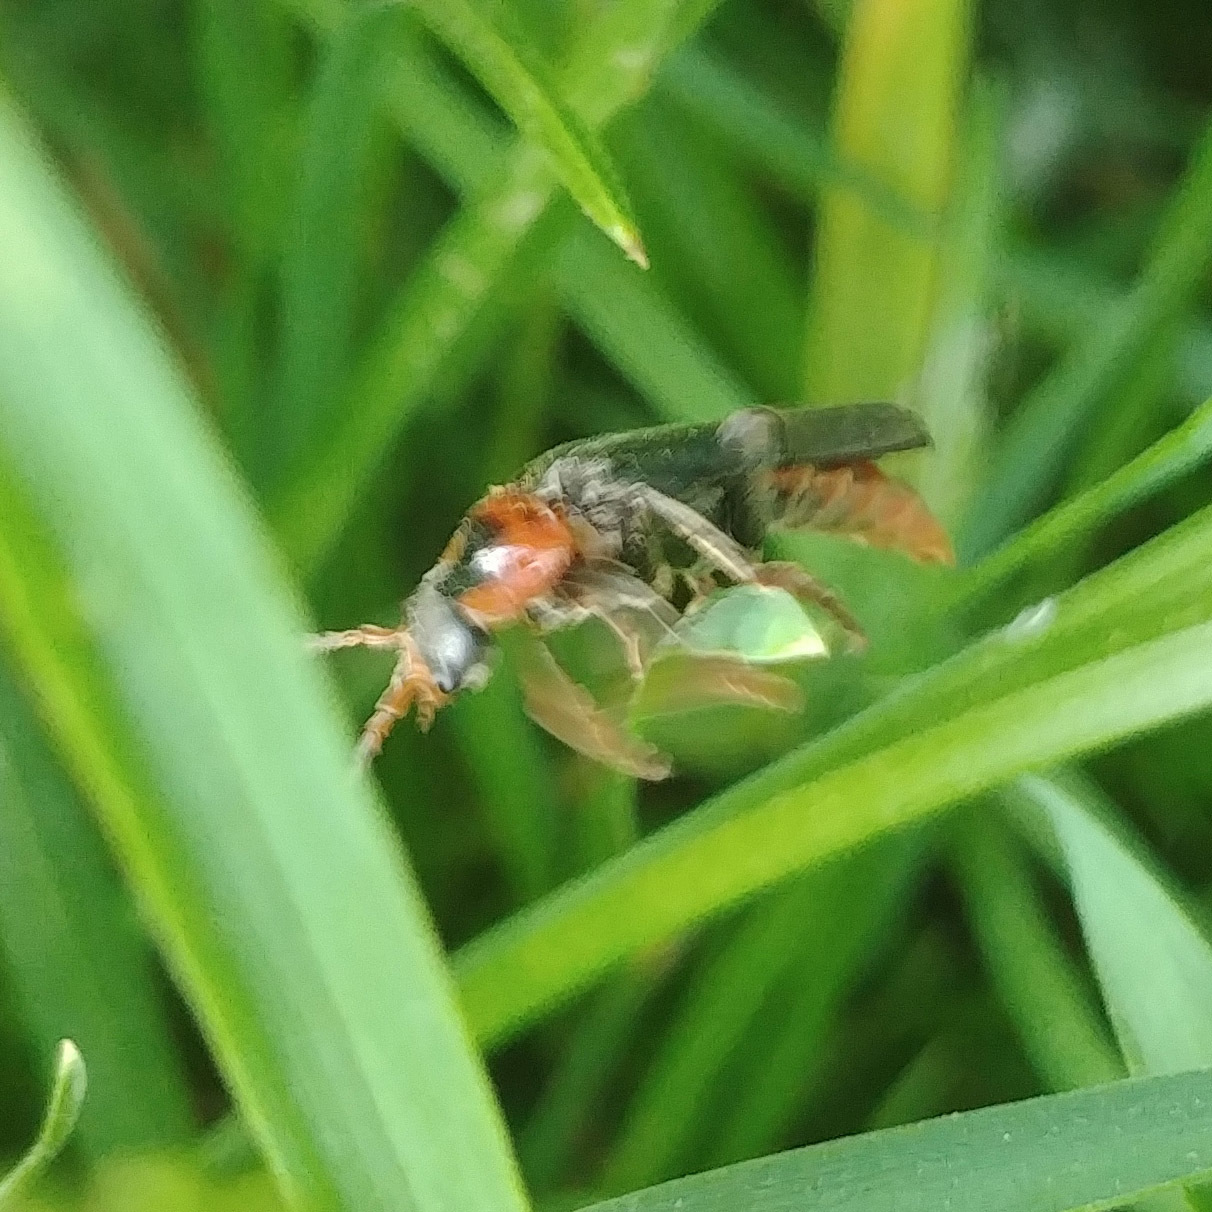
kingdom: Animalia
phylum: Arthropoda
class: Insecta
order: Coleoptera
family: Cantharidae
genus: Cantharis
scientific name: Cantharis fusca
